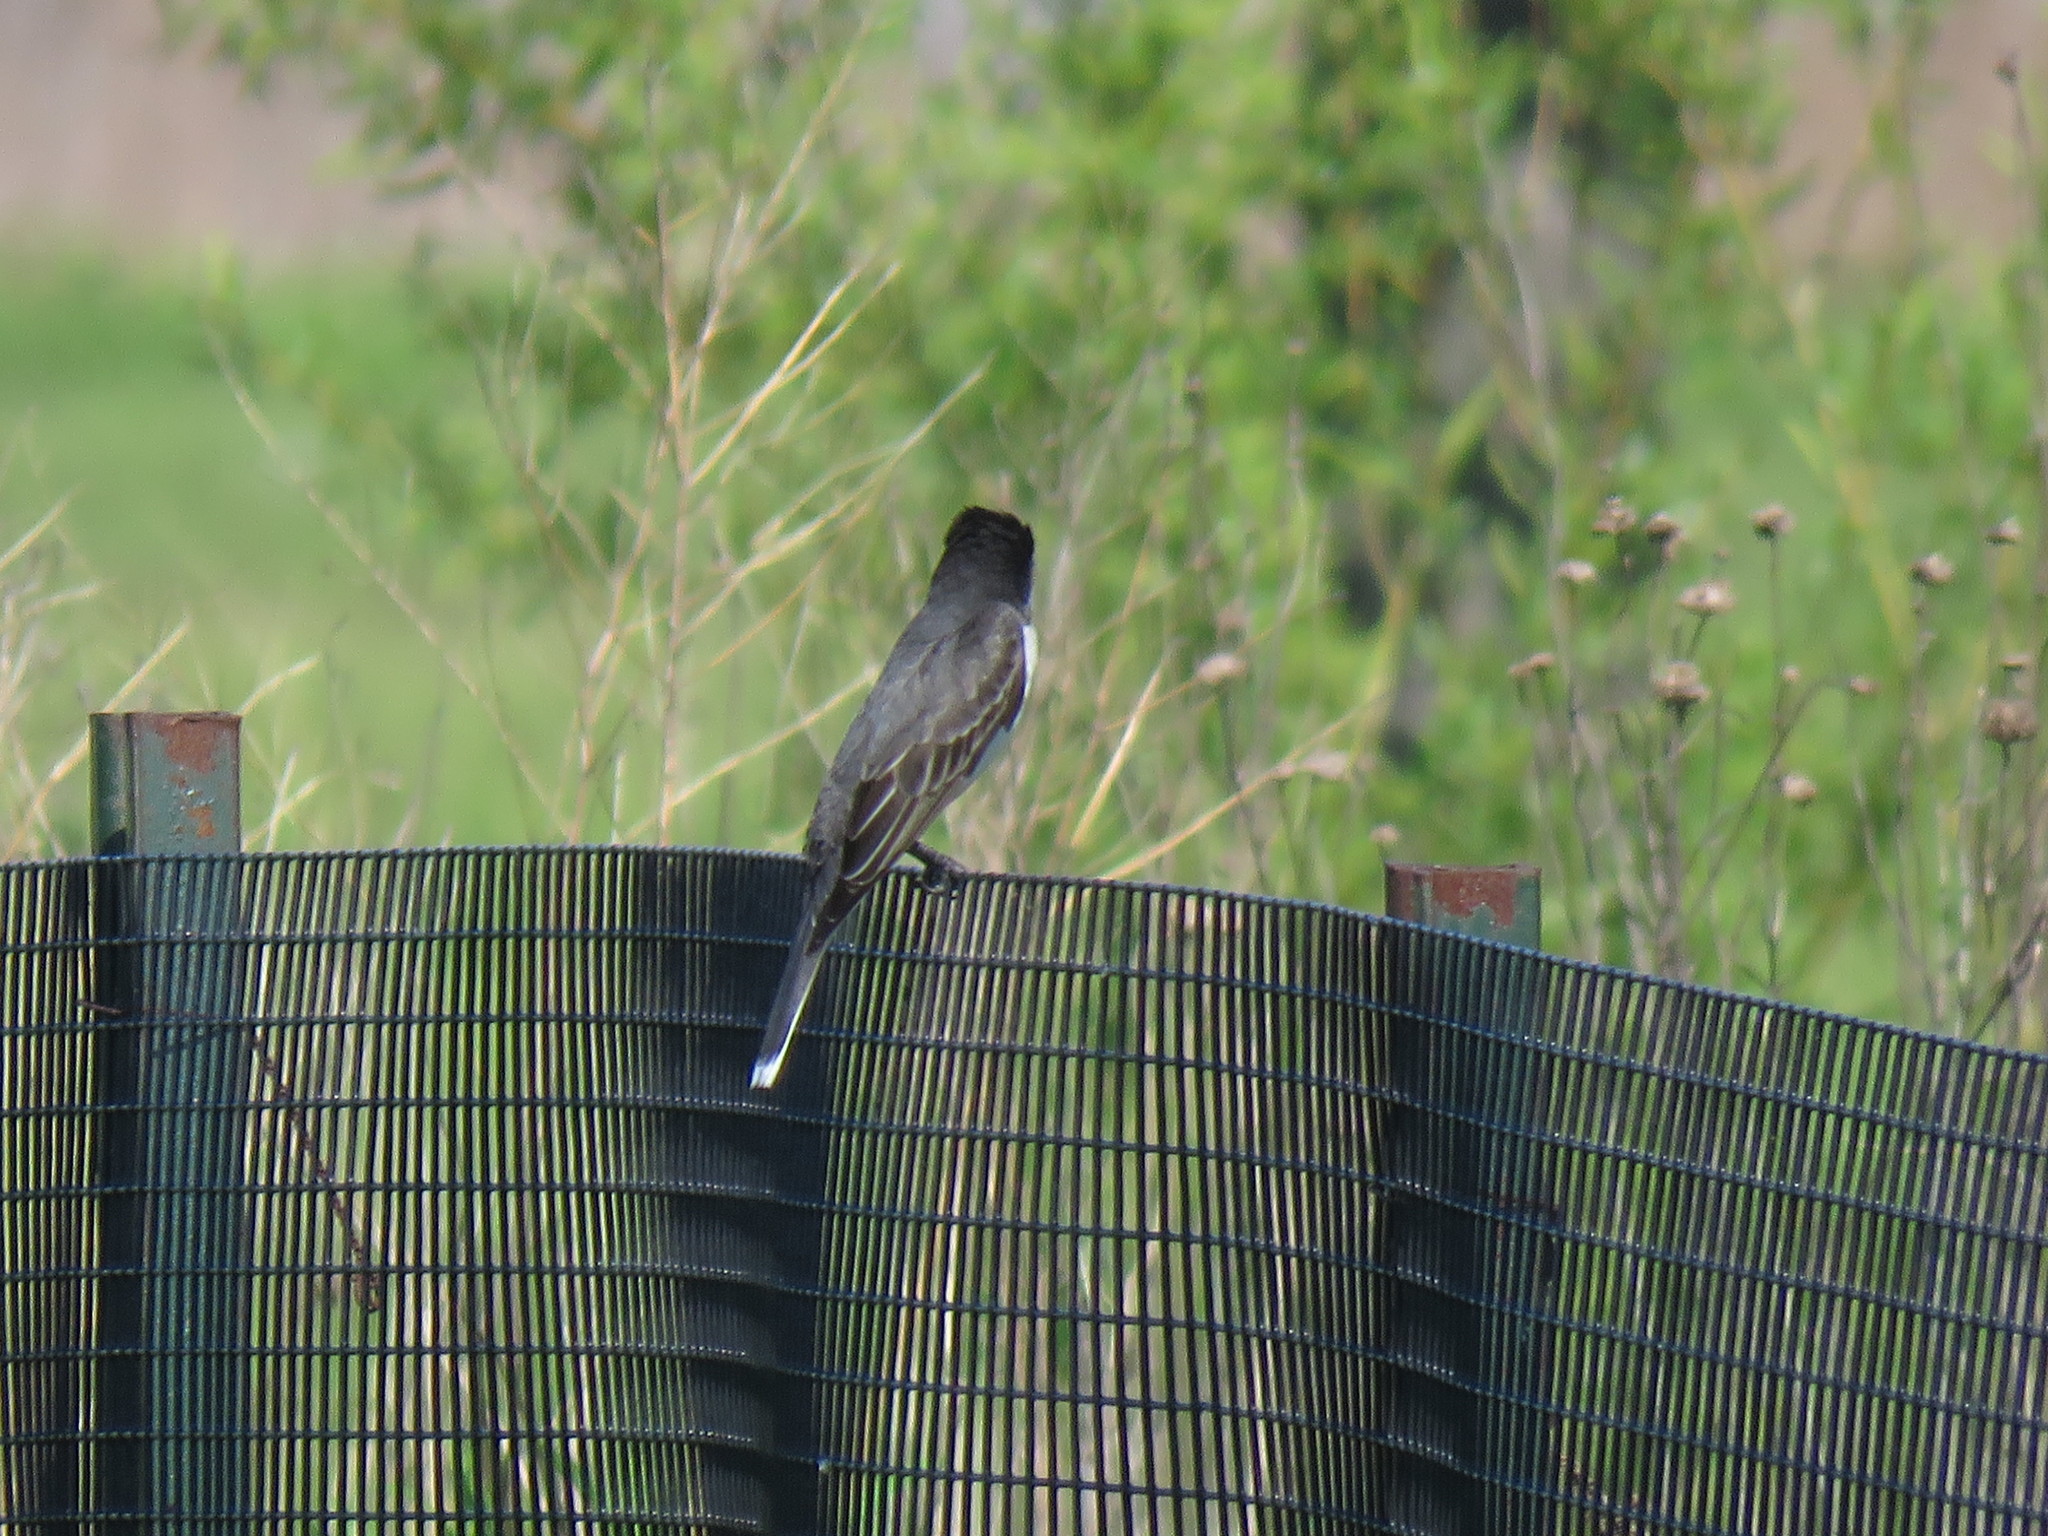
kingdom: Animalia
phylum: Chordata
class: Aves
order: Passeriformes
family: Tyrannidae
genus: Tyrannus
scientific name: Tyrannus tyrannus
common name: Eastern kingbird
